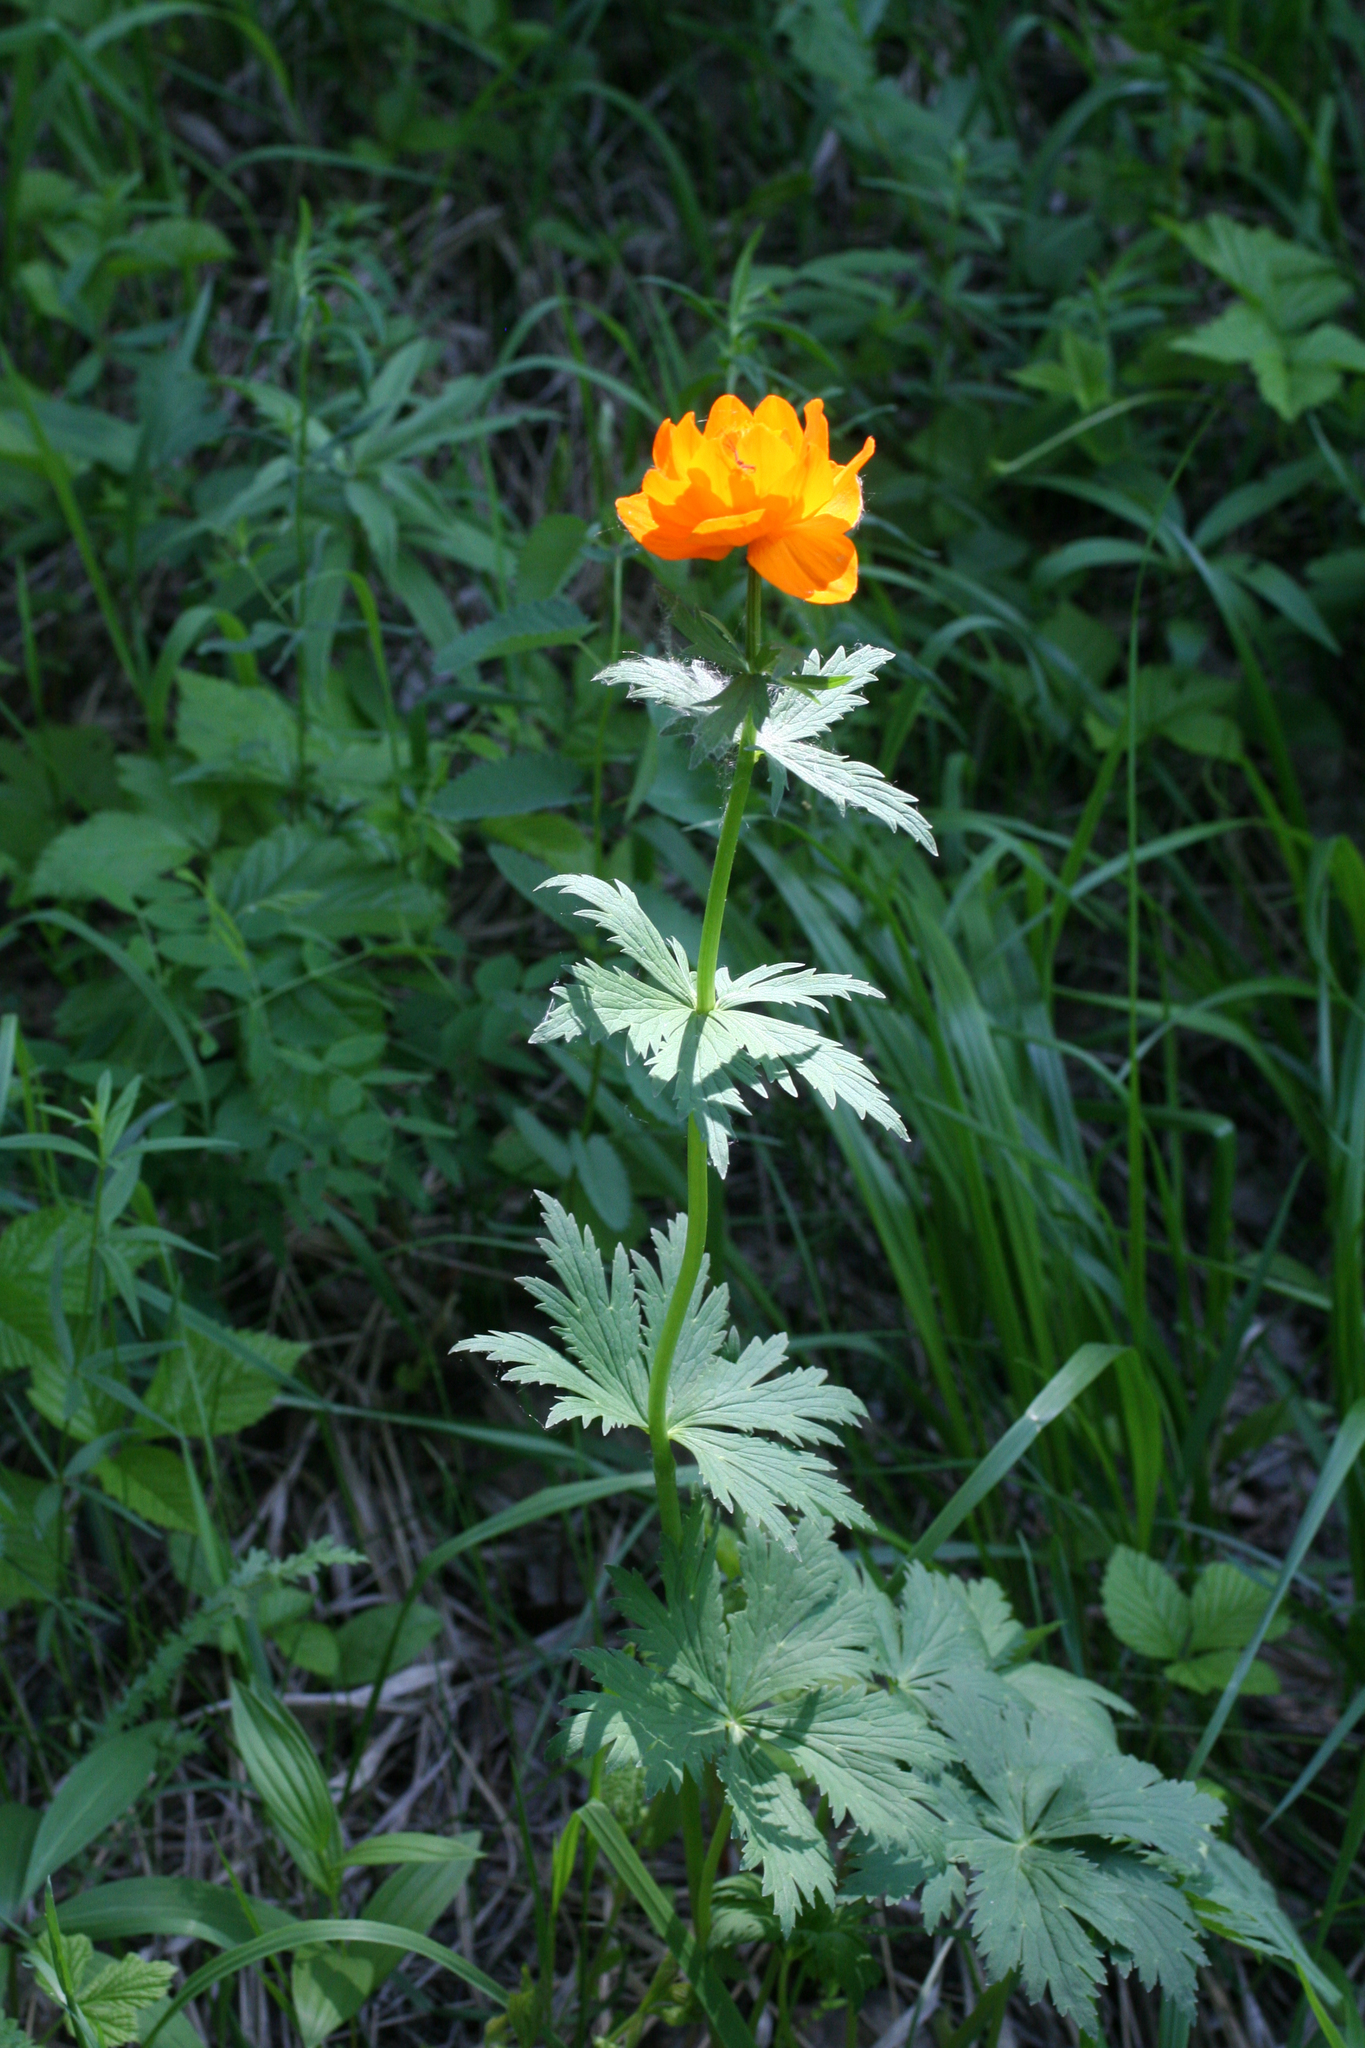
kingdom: Plantae
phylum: Tracheophyta
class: Magnoliopsida
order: Ranunculales
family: Ranunculaceae
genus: Trollius
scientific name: Trollius asiaticus
